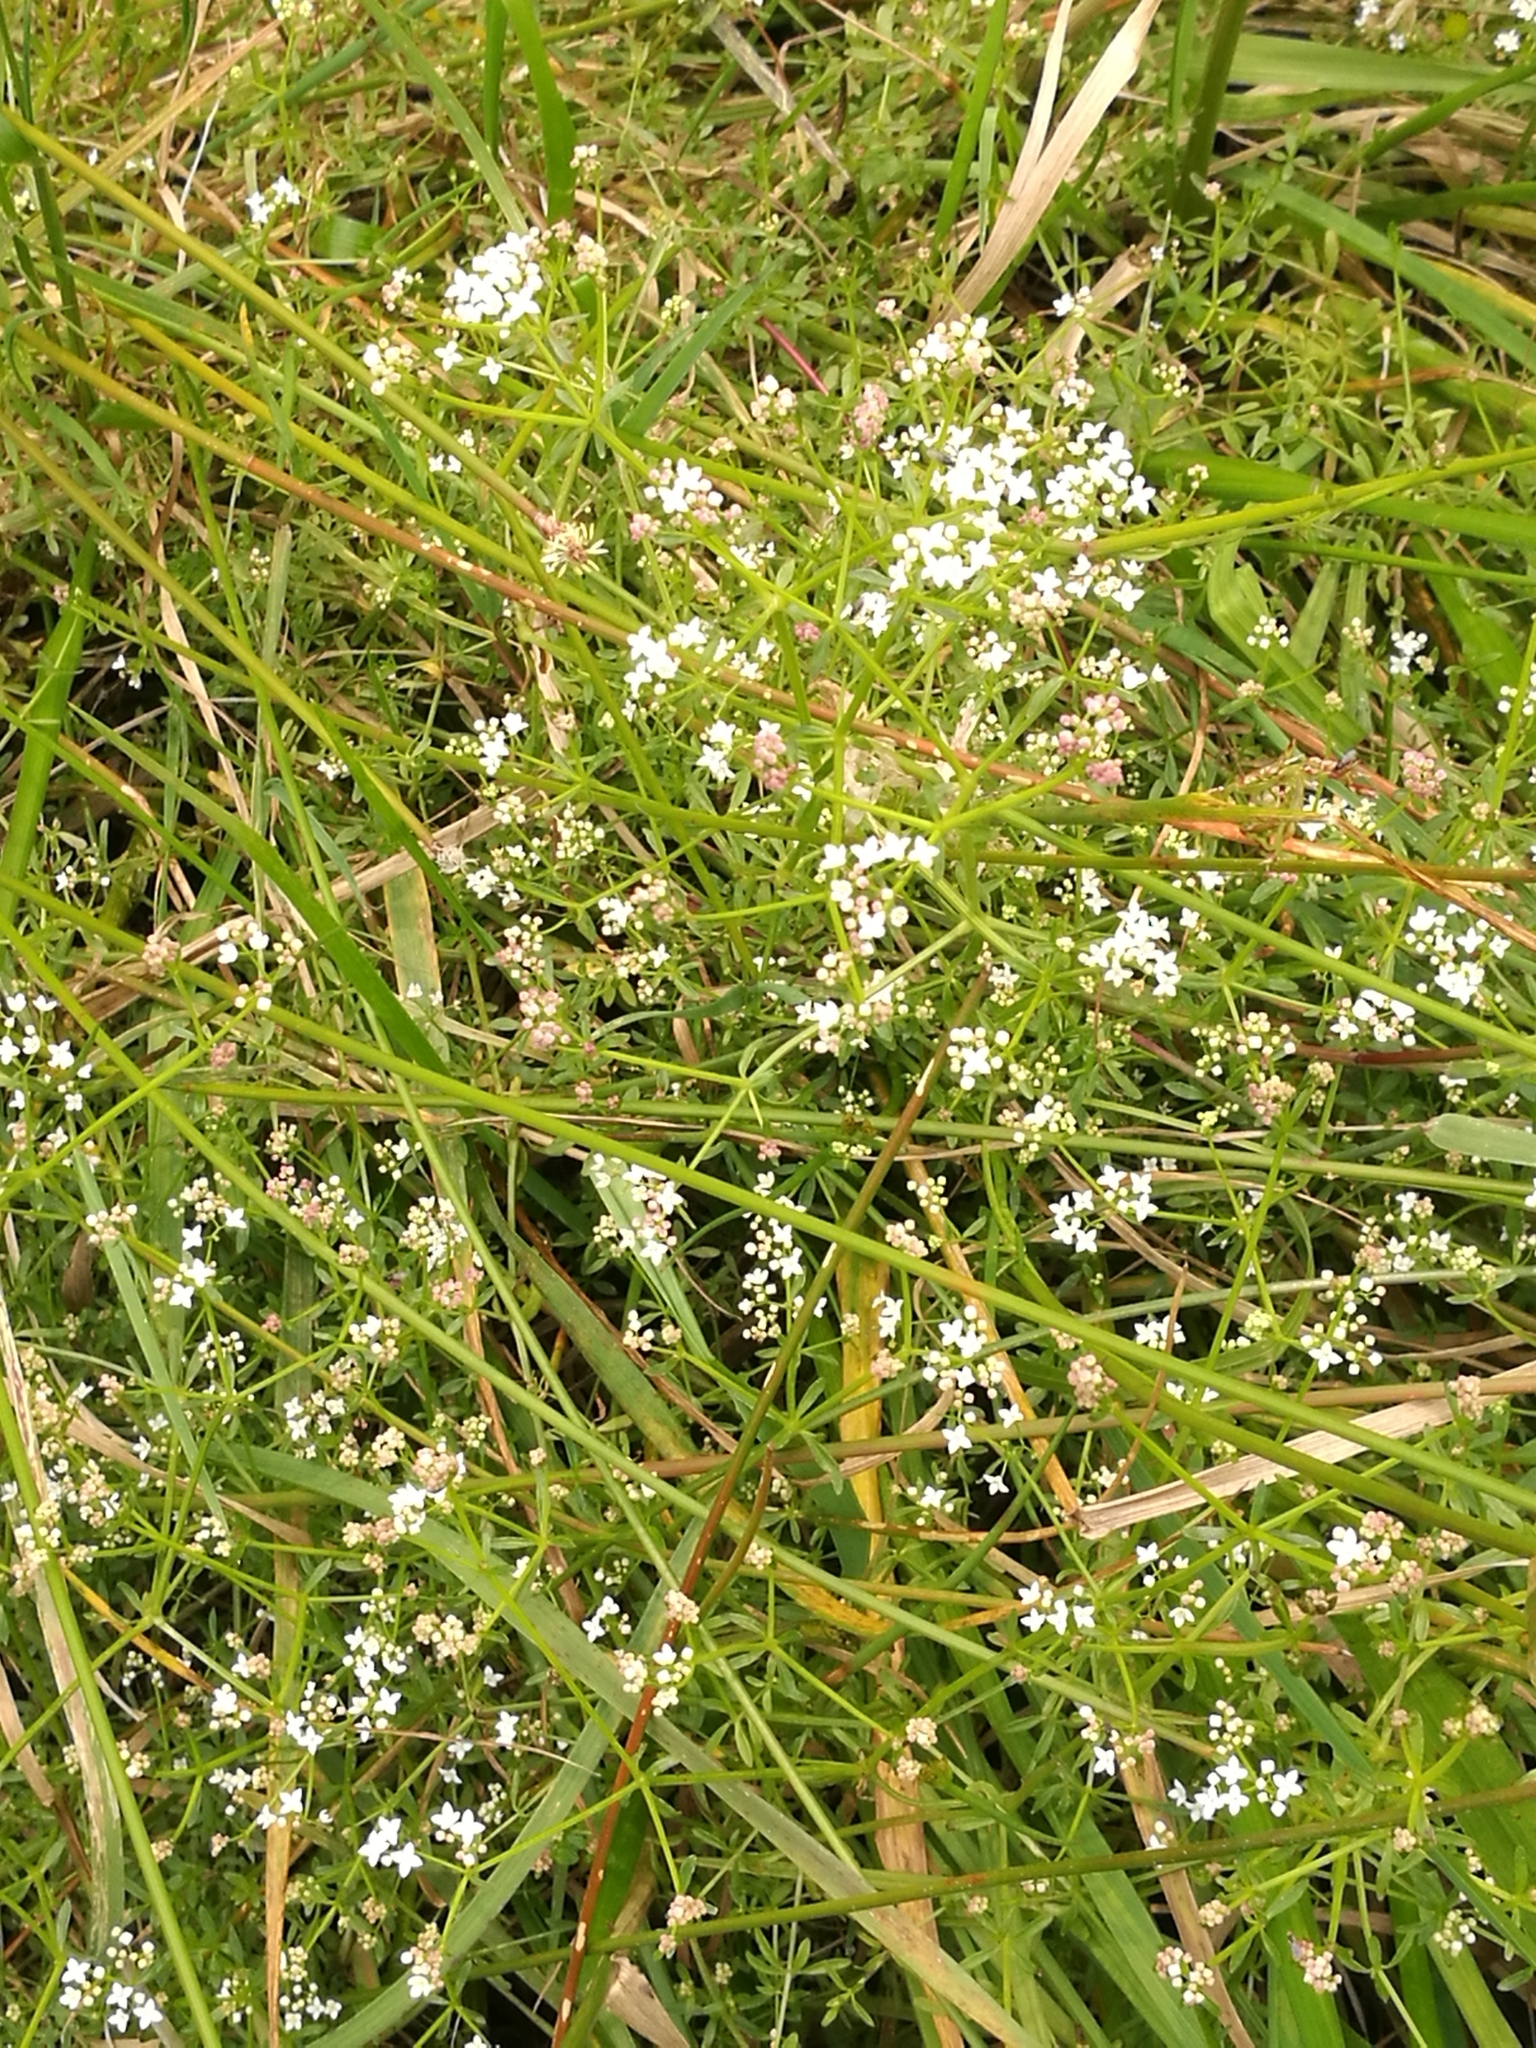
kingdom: Plantae
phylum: Tracheophyta
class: Magnoliopsida
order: Gentianales
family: Rubiaceae
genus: Galium
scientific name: Galium palustre
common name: Common marsh-bedstraw
